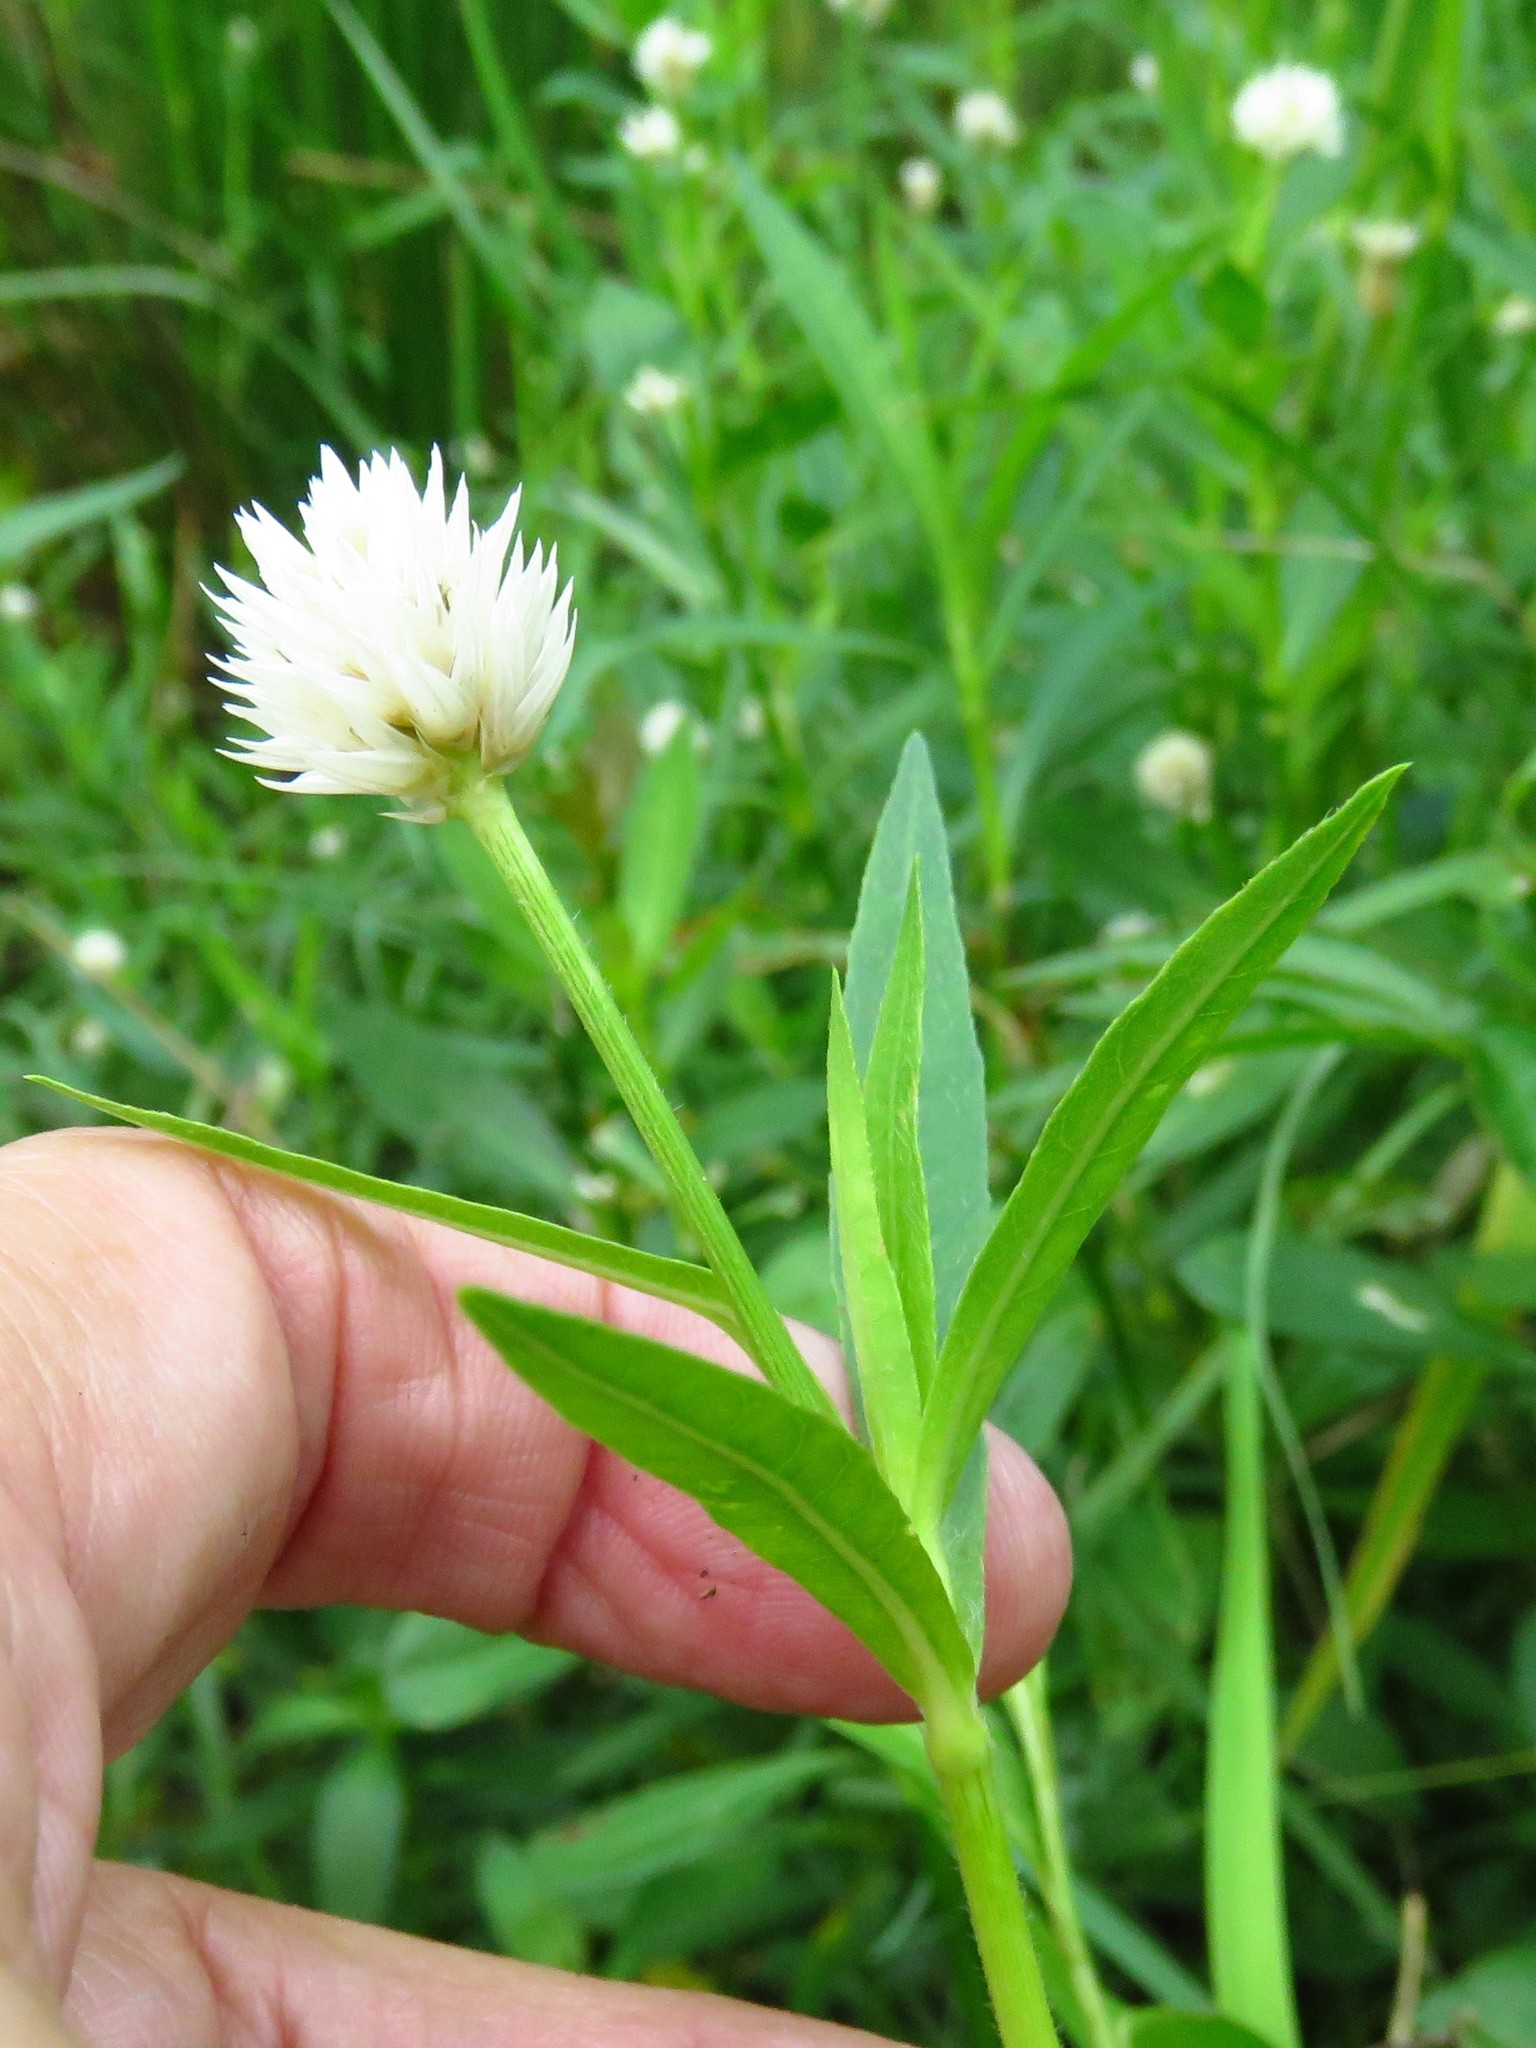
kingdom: Plantae
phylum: Tracheophyta
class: Magnoliopsida
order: Caryophyllales
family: Amaranthaceae
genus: Alternanthera
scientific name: Alternanthera philoxeroides
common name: Alligatorweed
